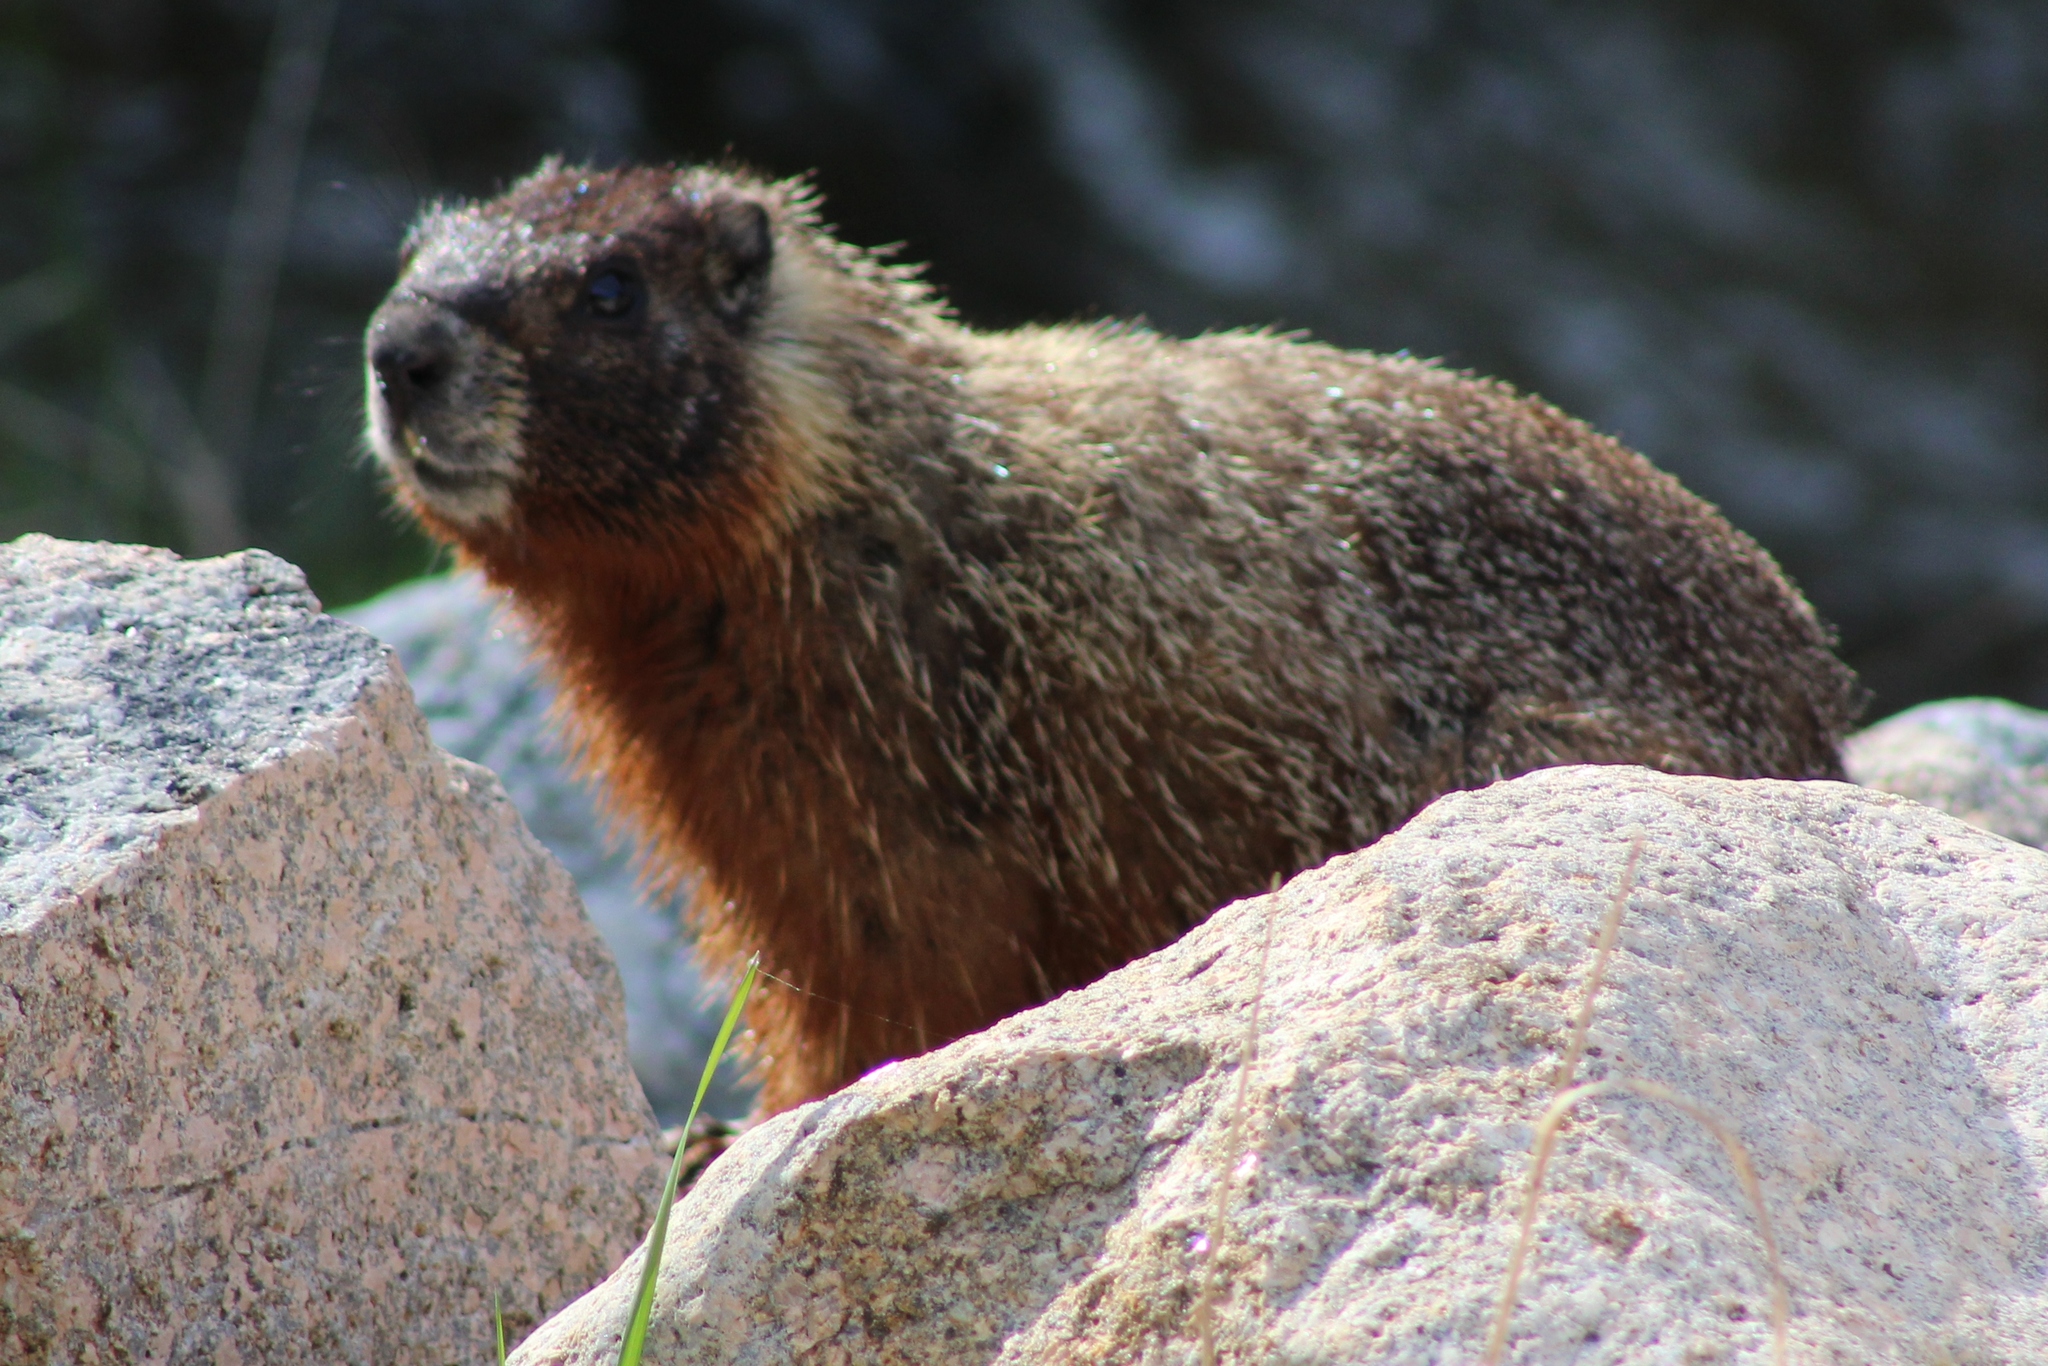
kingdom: Animalia
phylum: Chordata
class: Mammalia
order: Rodentia
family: Sciuridae
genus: Marmota
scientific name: Marmota flaviventris
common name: Yellow-bellied marmot
